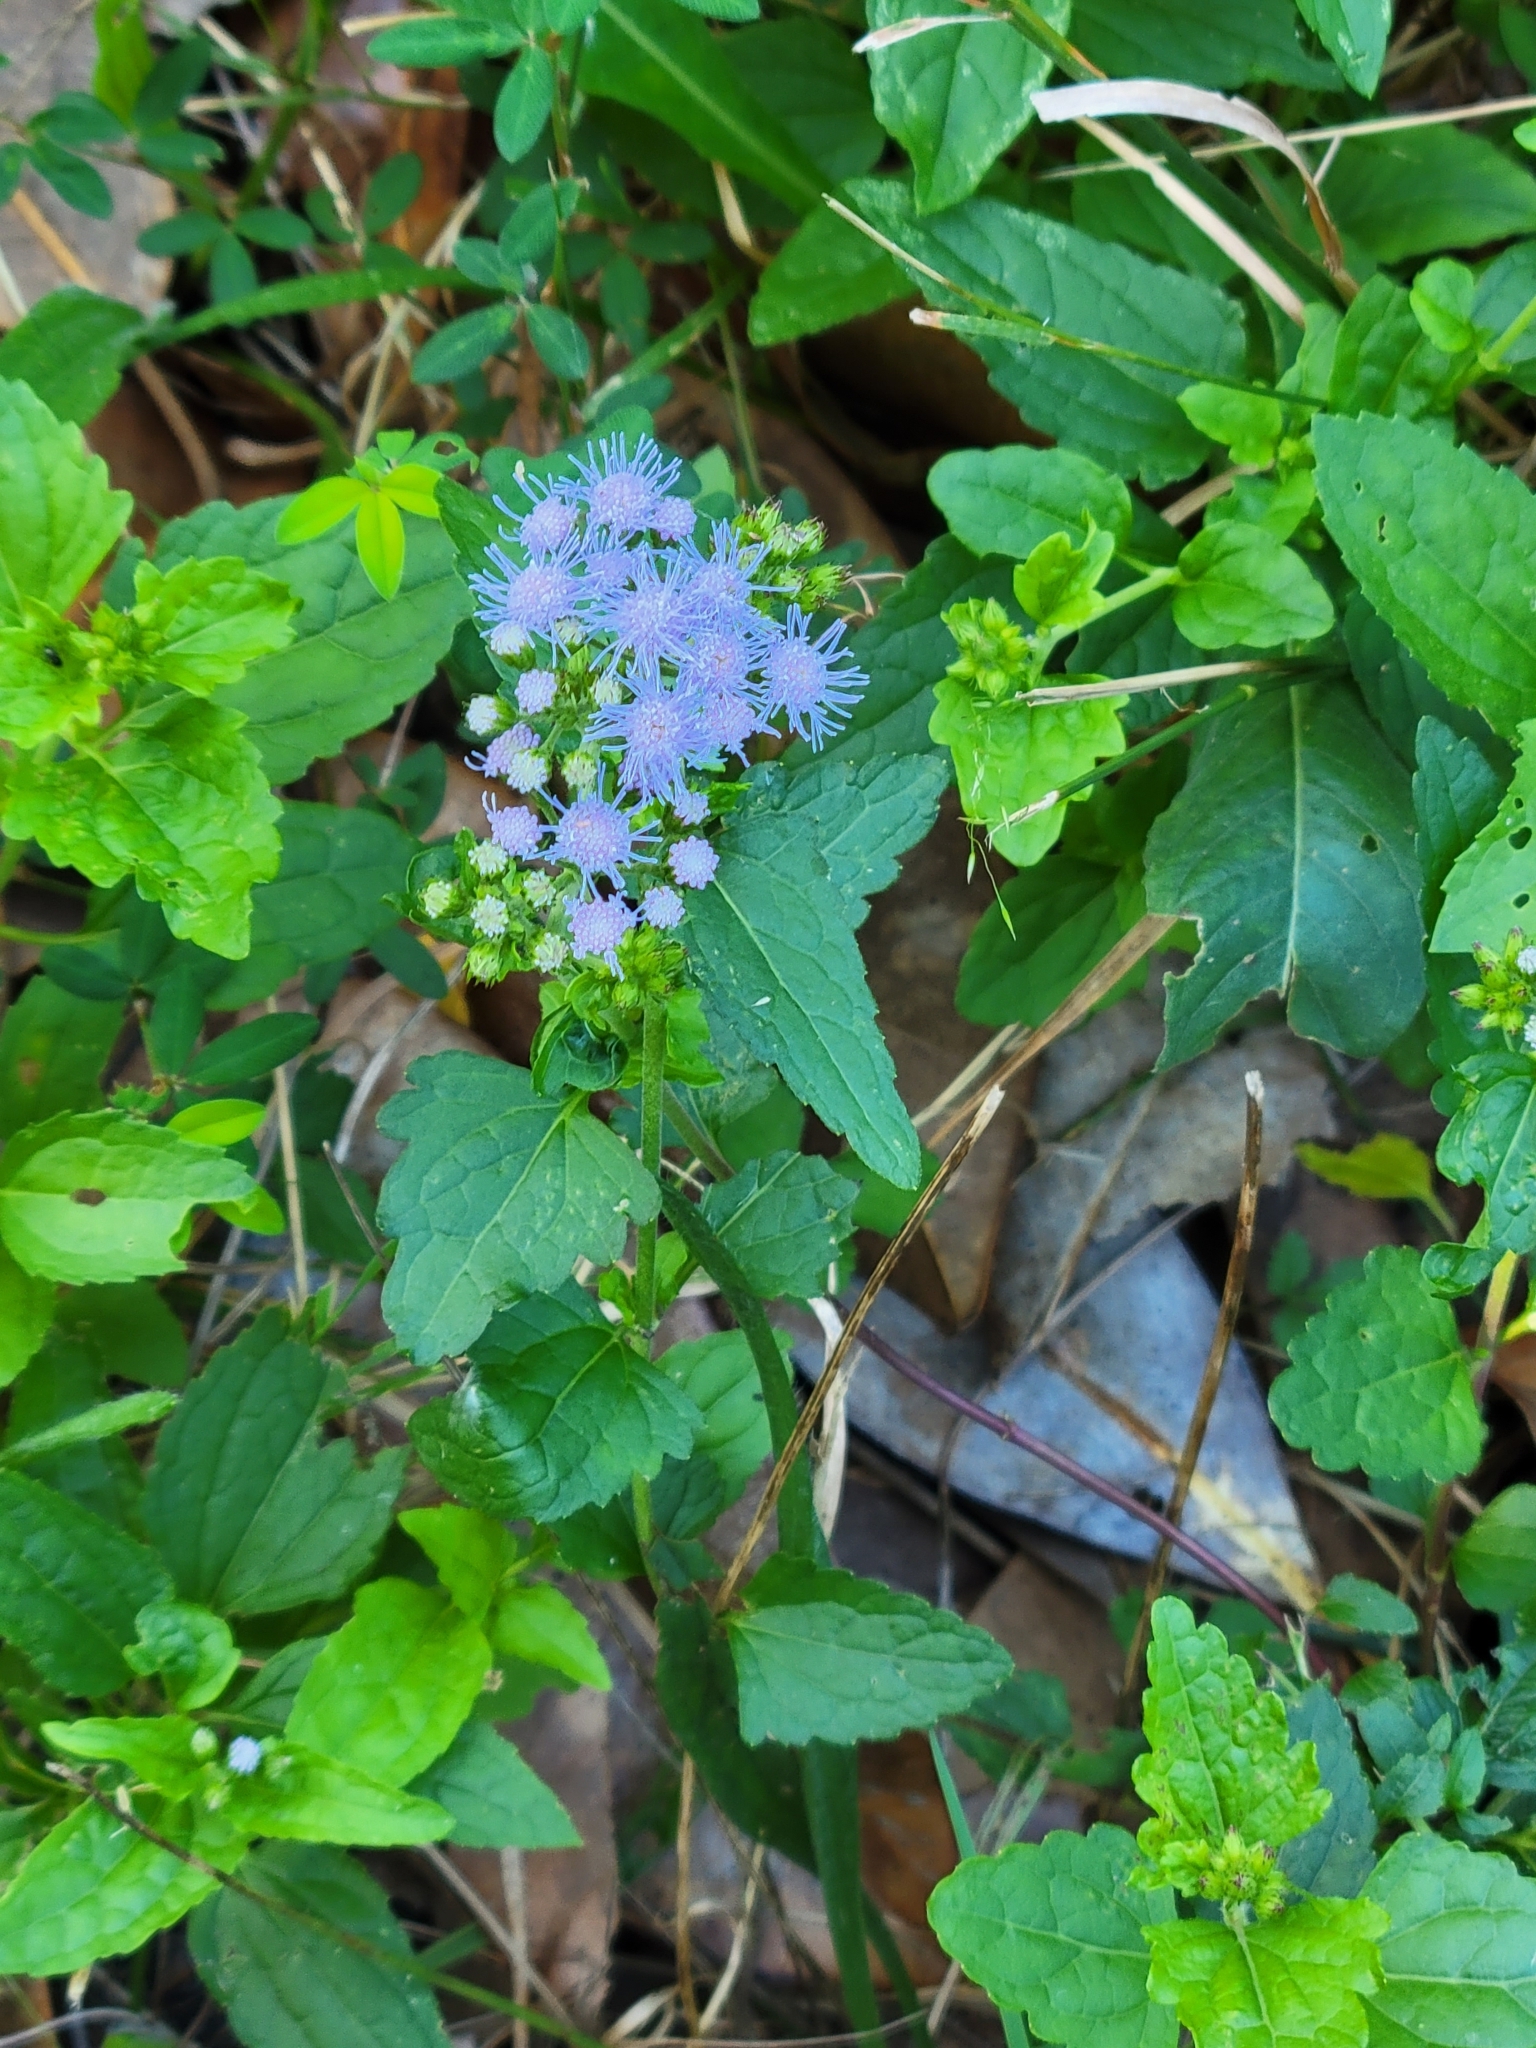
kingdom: Plantae
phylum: Tracheophyta
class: Magnoliopsida
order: Asterales
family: Asteraceae
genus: Conoclinium
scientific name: Conoclinium coelestinum
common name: Blue mistflower
